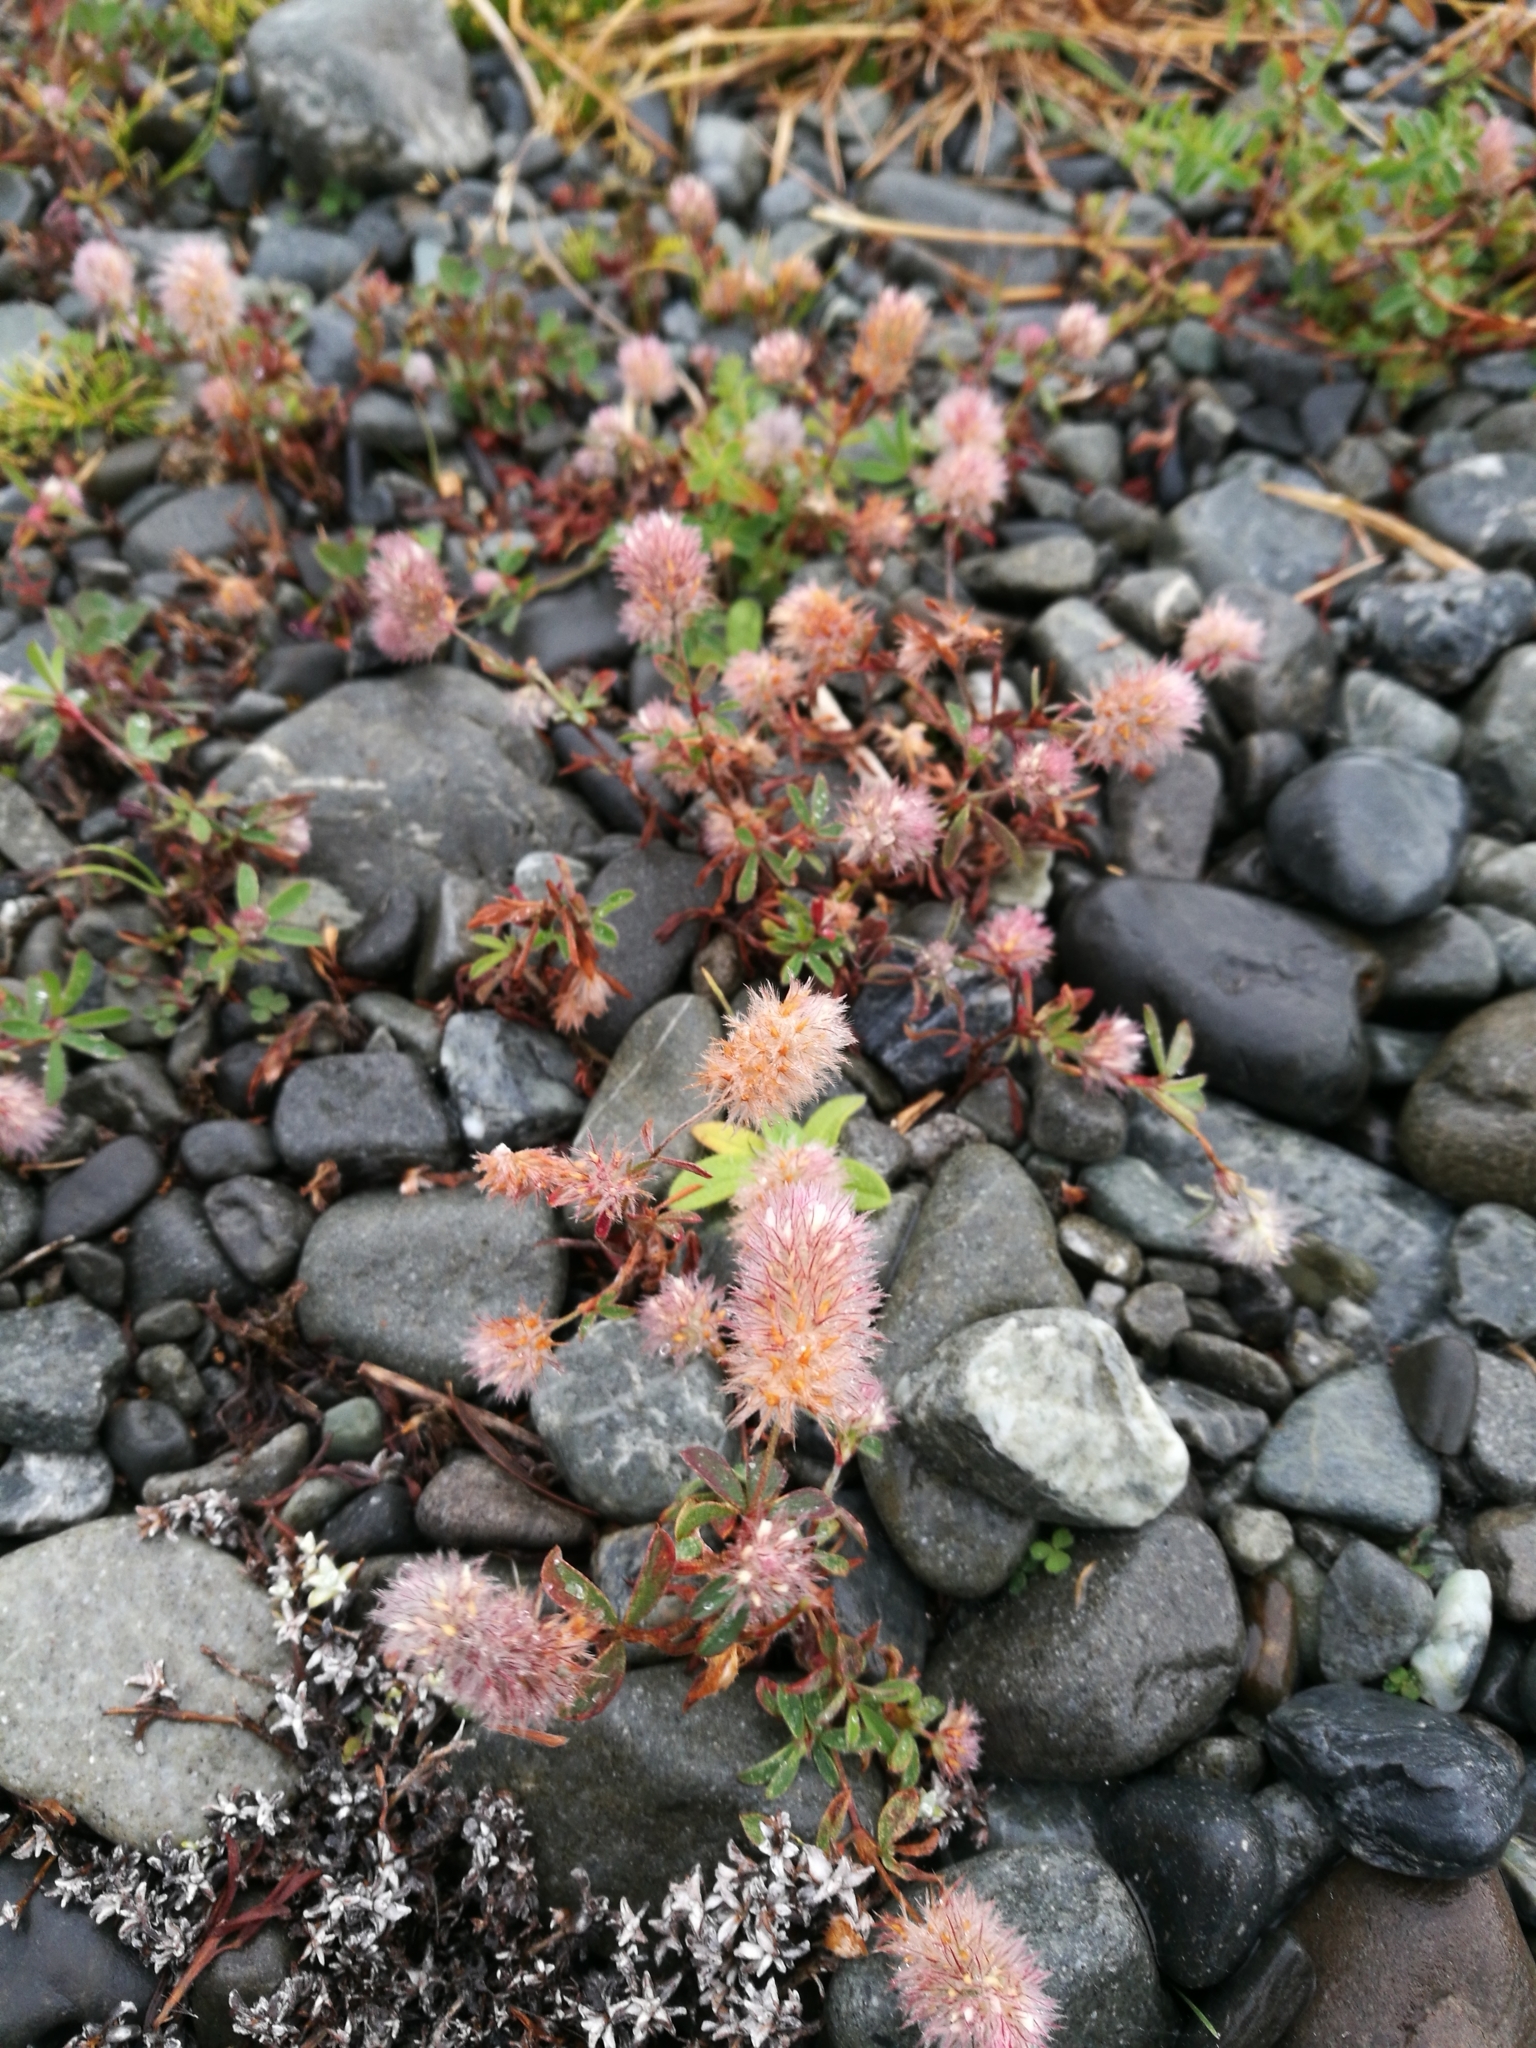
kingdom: Plantae
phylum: Tracheophyta
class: Magnoliopsida
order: Fabales
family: Fabaceae
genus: Trifolium
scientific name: Trifolium arvense
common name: Hare's-foot clover
